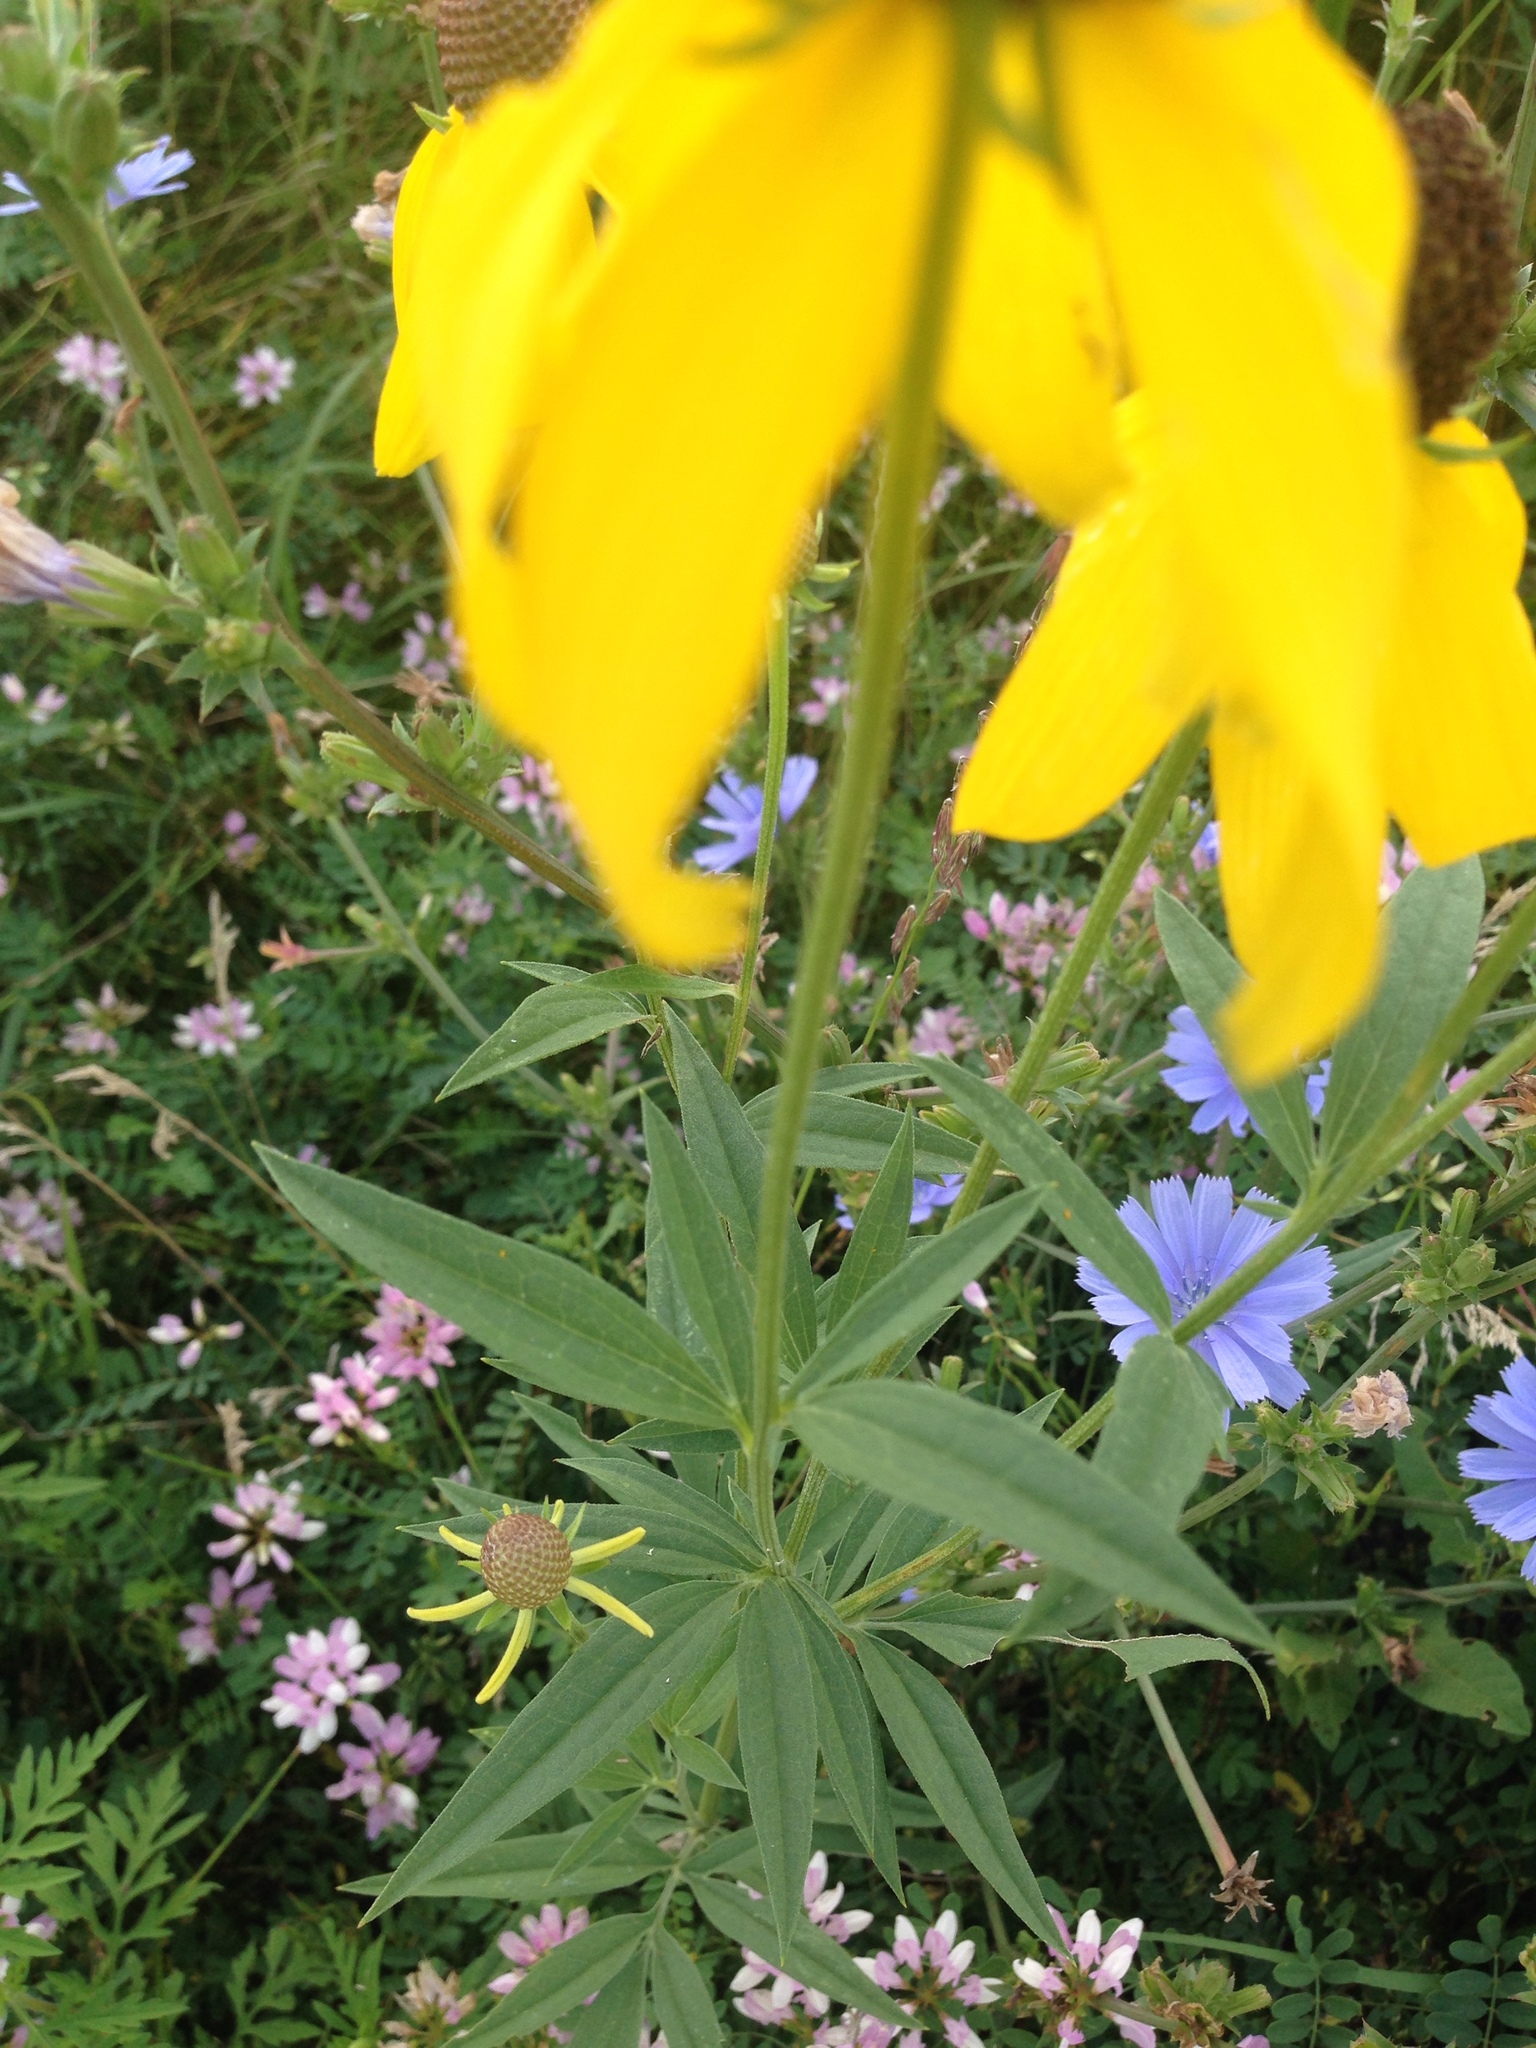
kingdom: Plantae
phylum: Tracheophyta
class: Magnoliopsida
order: Asterales
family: Asteraceae
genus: Ratibida
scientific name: Ratibida pinnata
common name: Drooping prairie-coneflower
